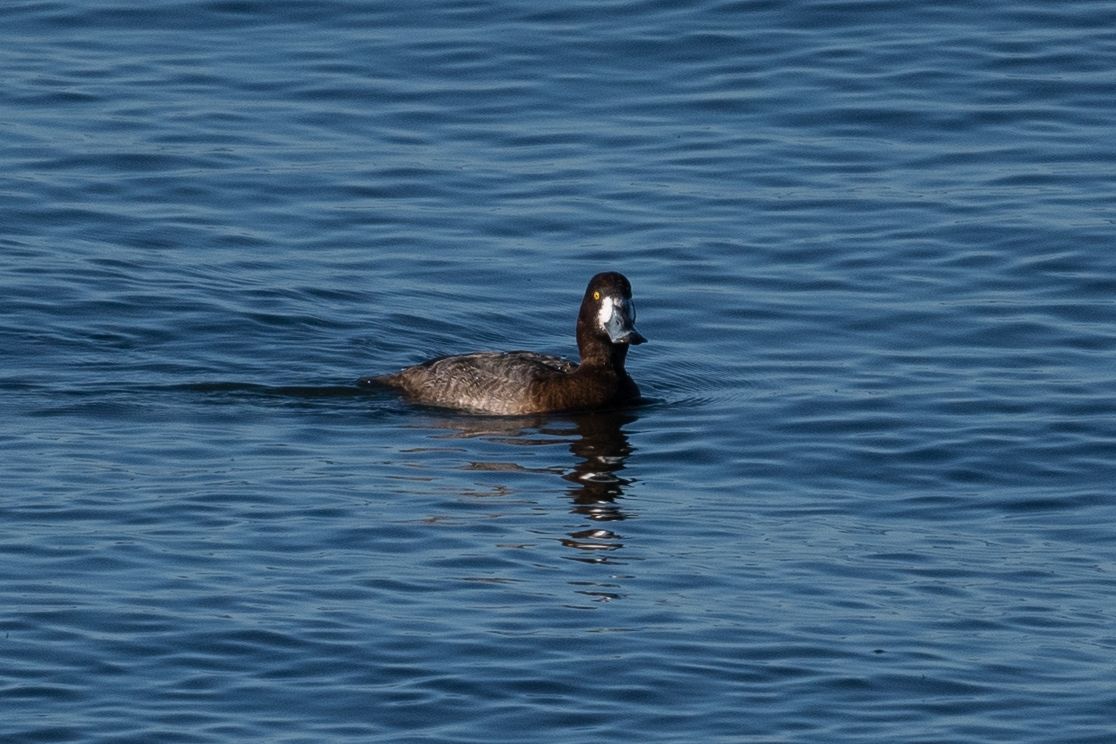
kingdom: Animalia
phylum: Chordata
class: Aves
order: Anseriformes
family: Anatidae
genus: Aythya
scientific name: Aythya marila
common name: Greater scaup
